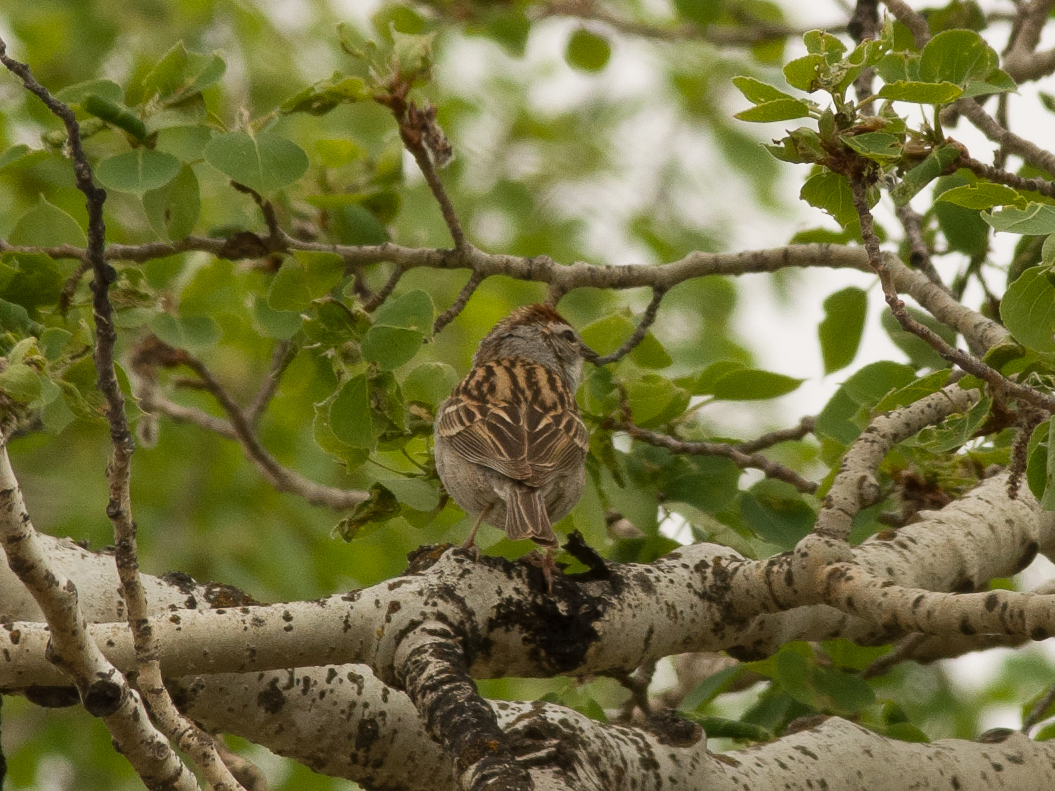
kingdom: Animalia
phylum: Chordata
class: Aves
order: Passeriformes
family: Passerellidae
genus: Spizella
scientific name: Spizella passerina
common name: Chipping sparrow
